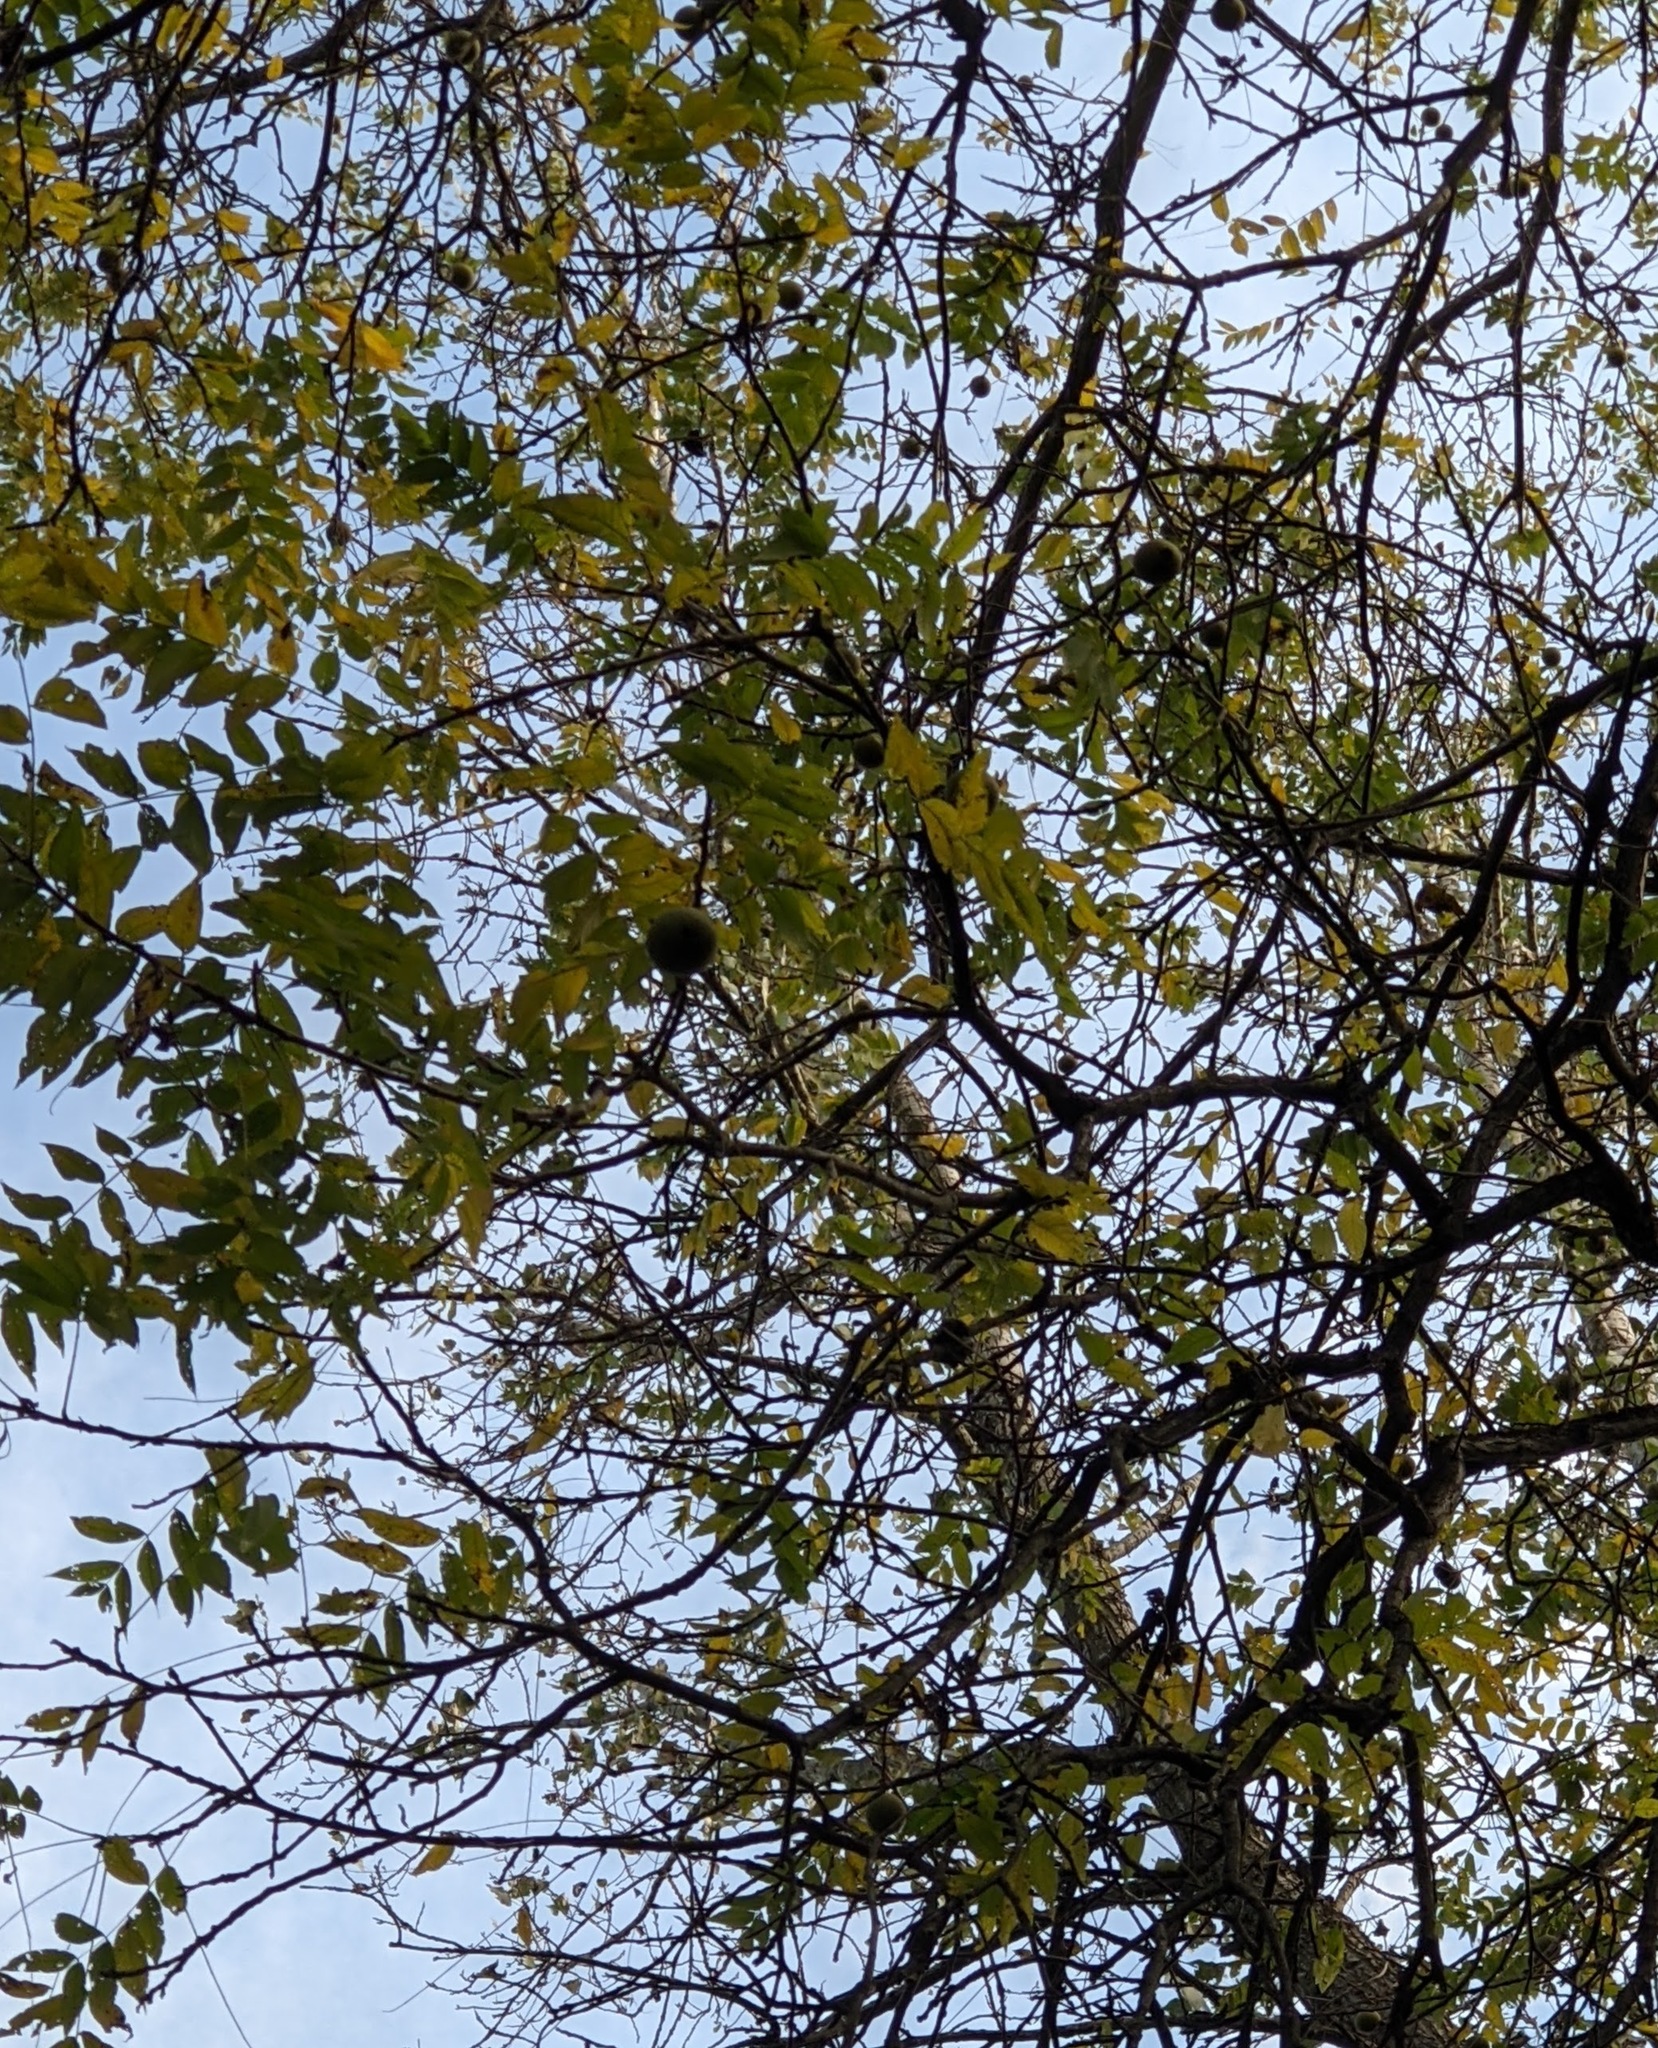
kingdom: Plantae
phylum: Tracheophyta
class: Magnoliopsida
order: Fagales
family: Juglandaceae
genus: Juglans
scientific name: Juglans nigra
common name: Black walnut
